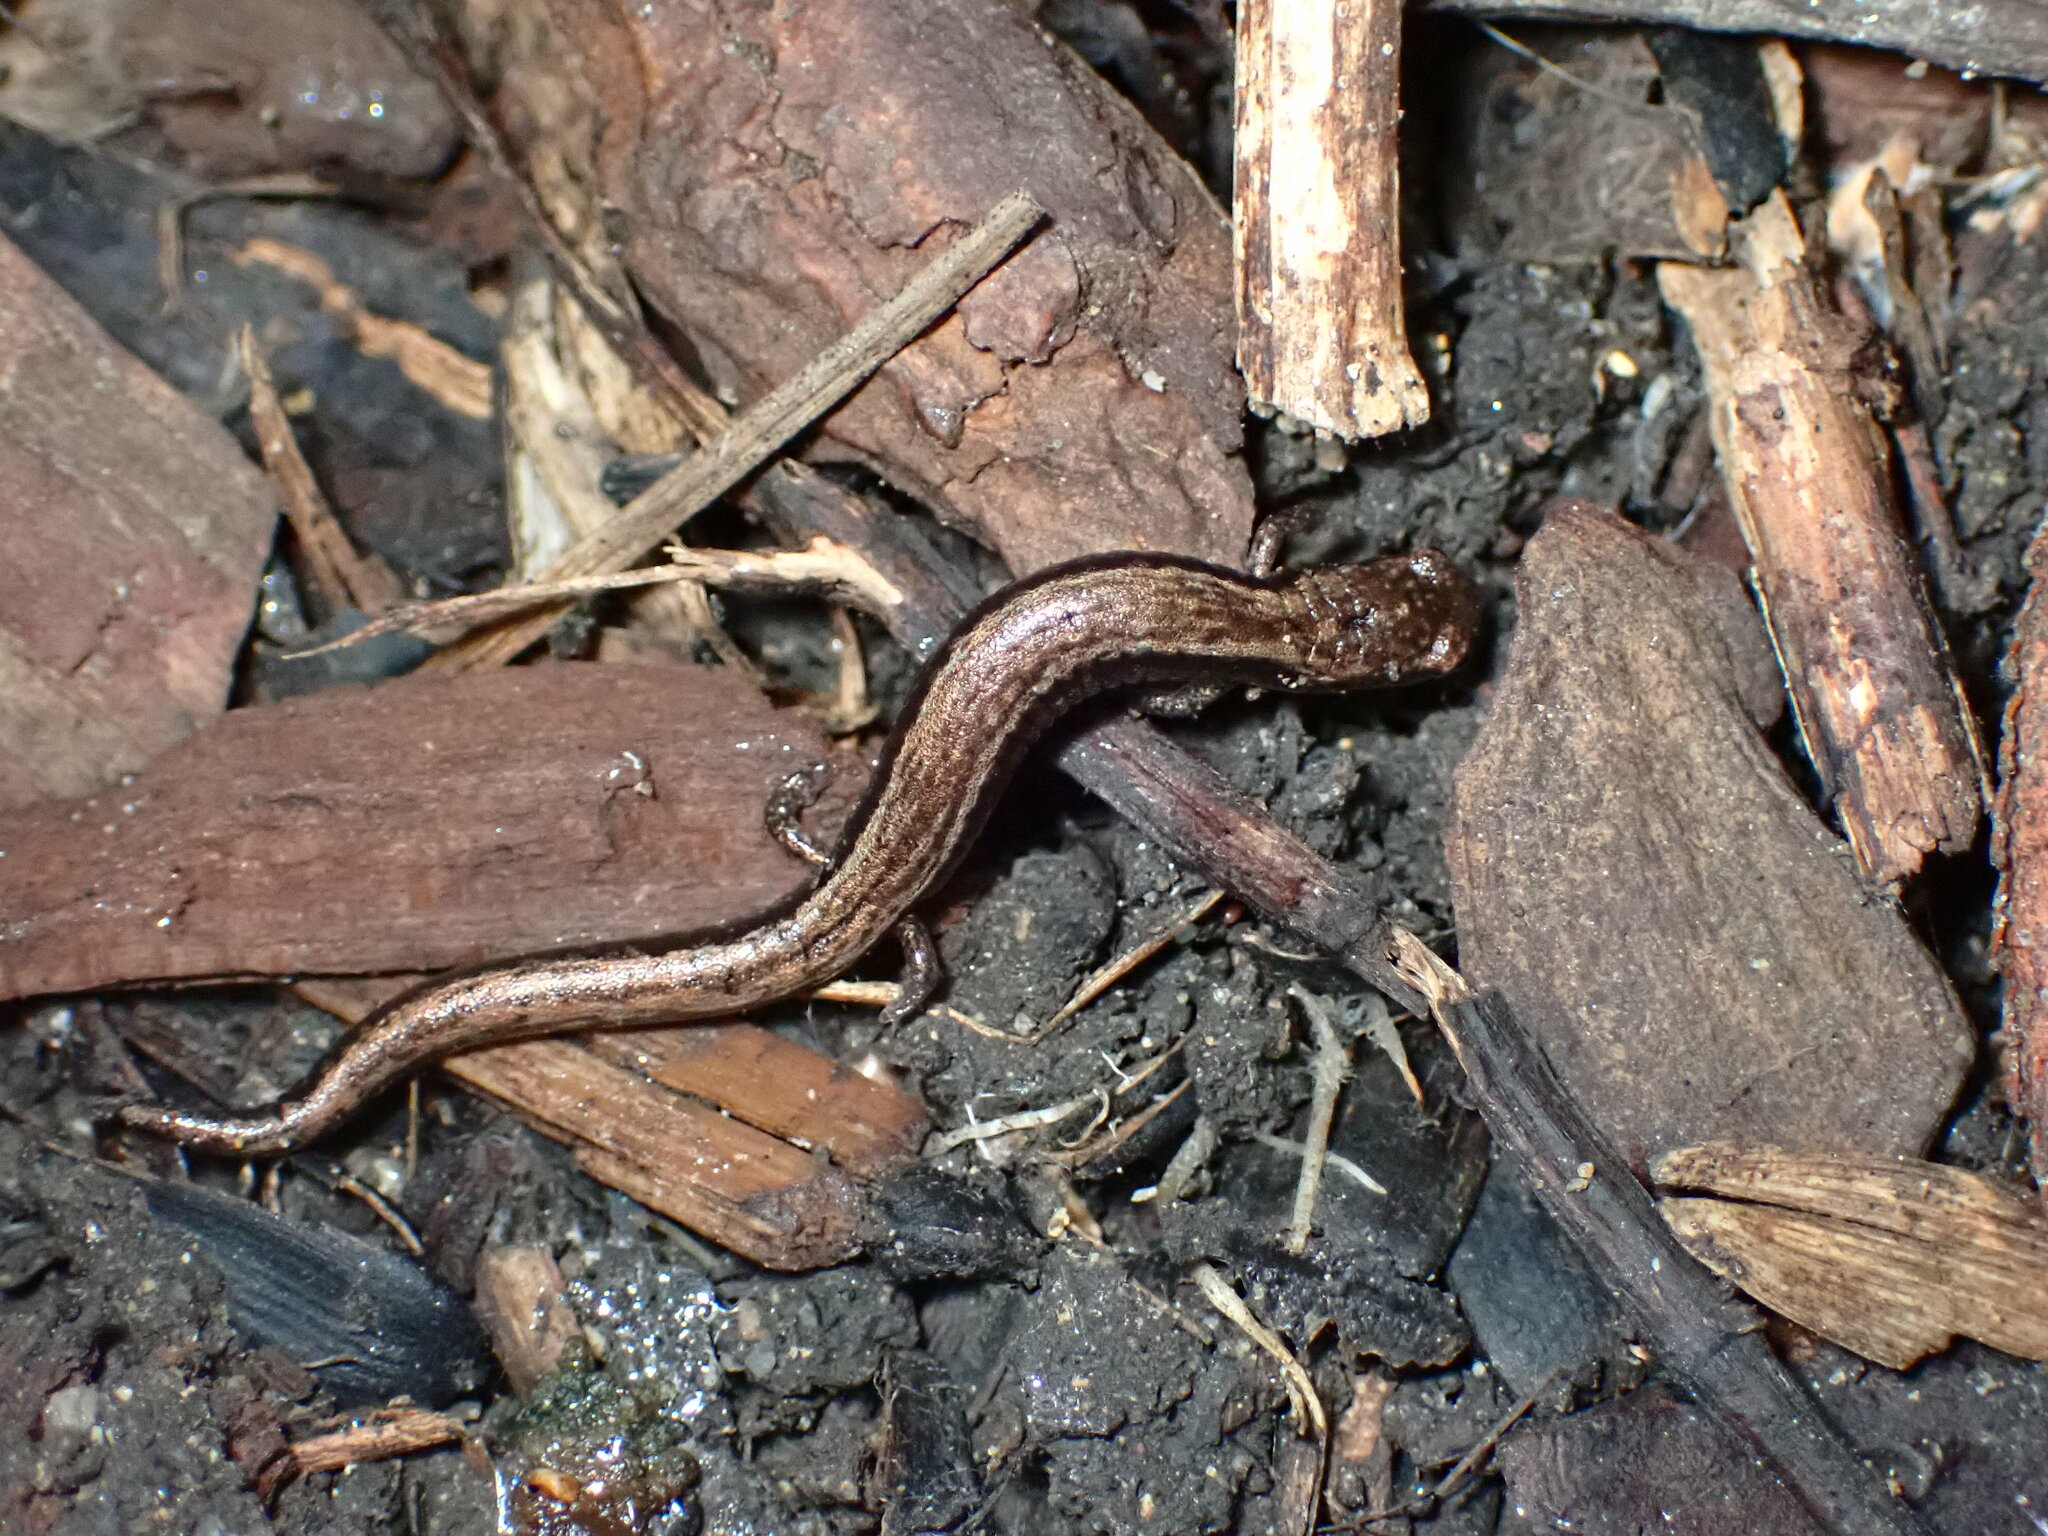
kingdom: Animalia
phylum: Chordata
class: Amphibia
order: Caudata
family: Plethodontidae
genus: Batrachoseps
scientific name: Batrachoseps attenuatus
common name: California slender salamander
